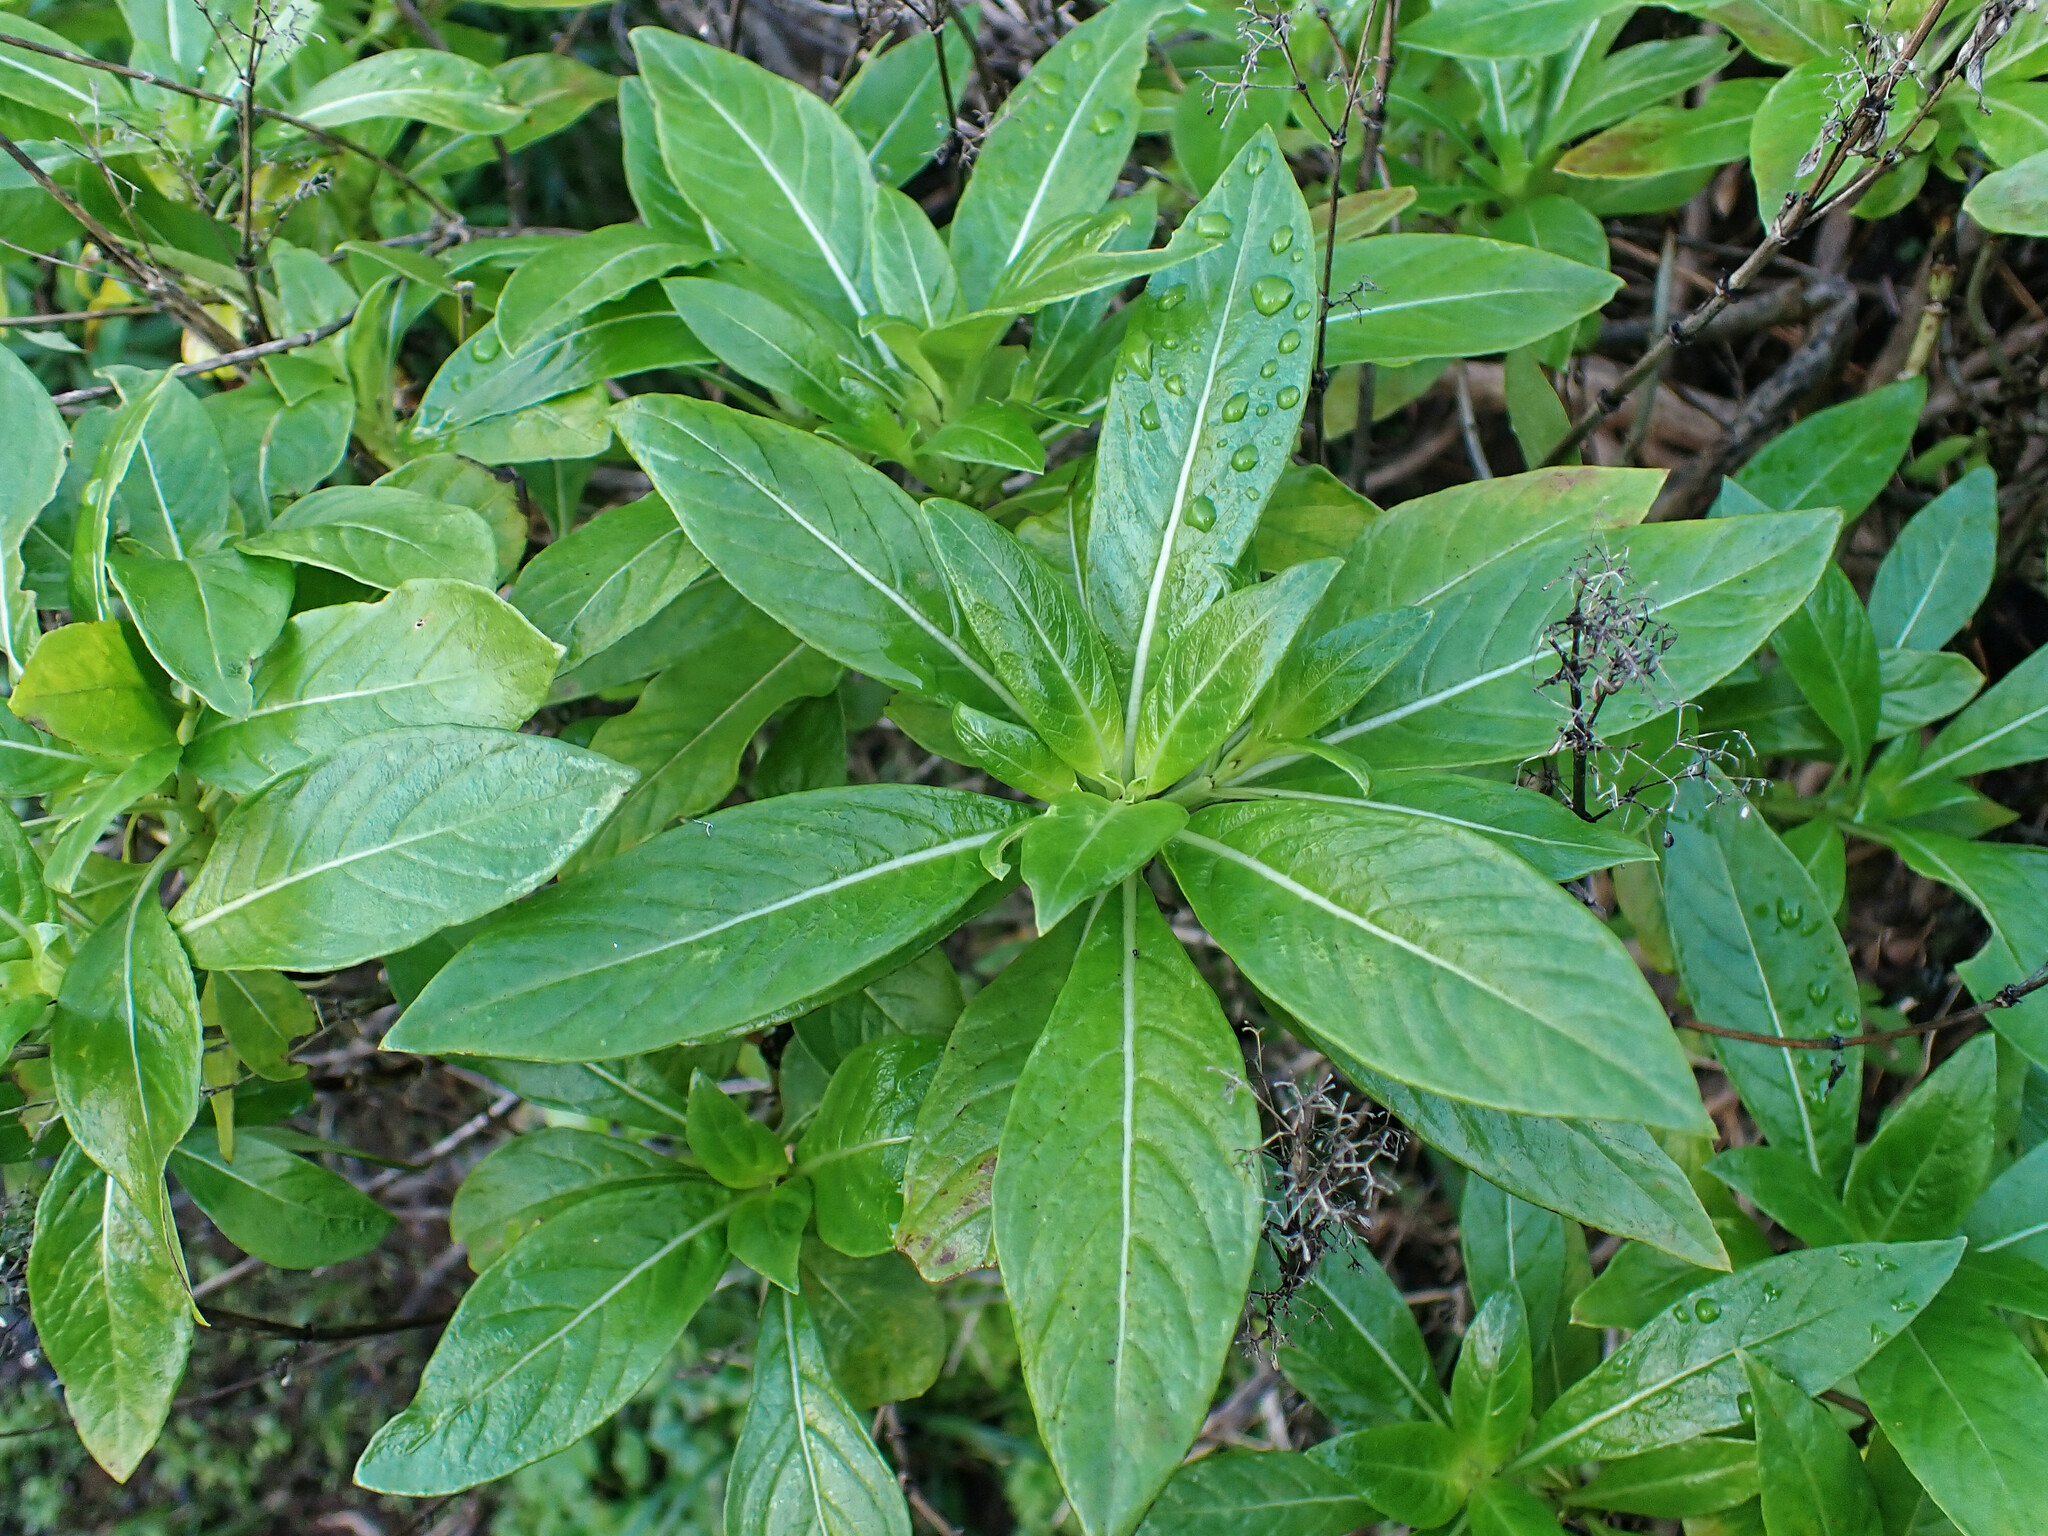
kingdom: Plantae
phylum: Tracheophyta
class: Magnoliopsida
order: Gentianales
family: Rubiaceae
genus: Phyllis
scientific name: Phyllis nobla
